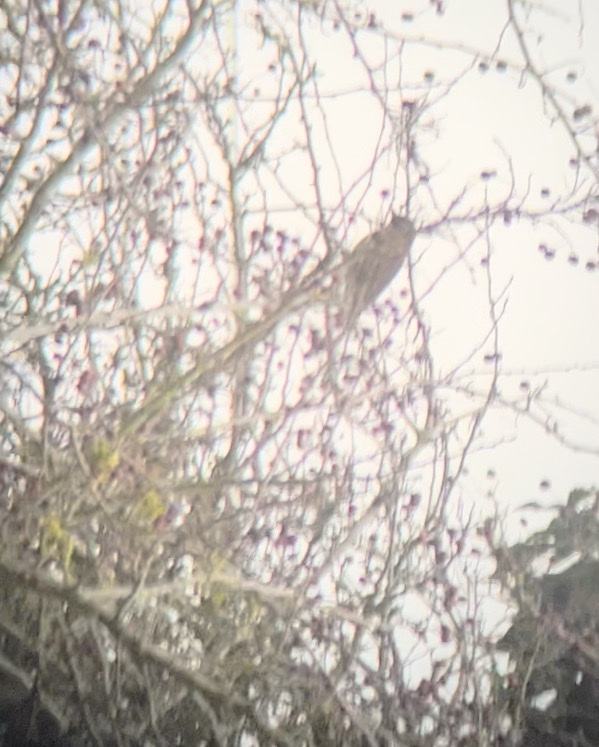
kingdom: Animalia
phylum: Chordata
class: Aves
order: Passeriformes
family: Turdidae
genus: Turdus
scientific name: Turdus iliacus
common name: Redwing
